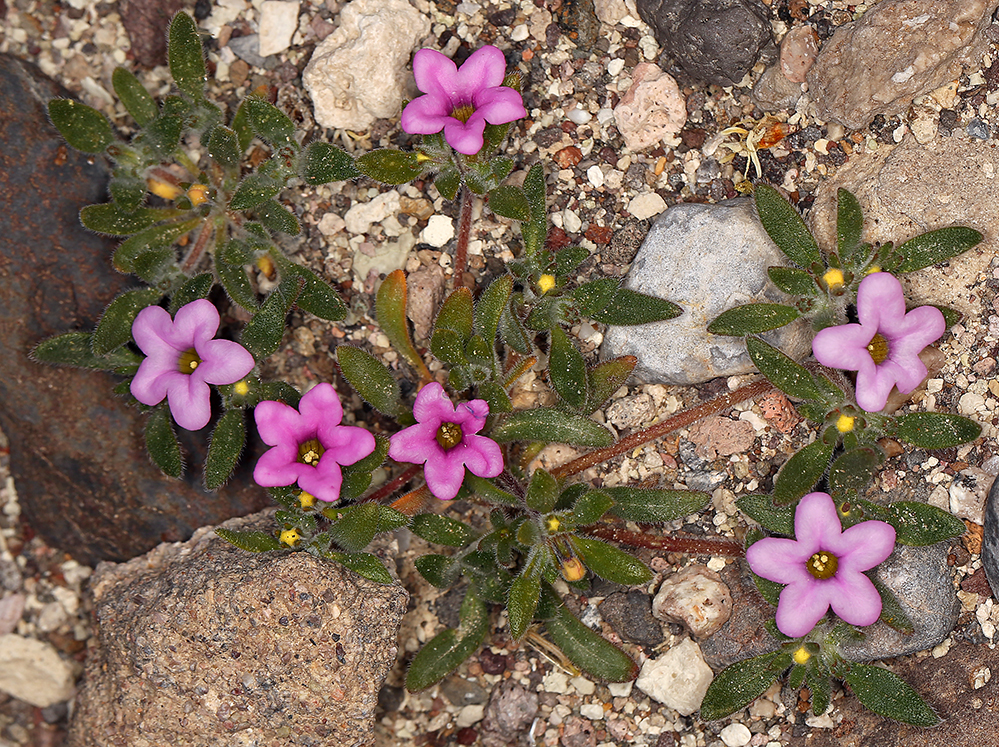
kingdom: Plantae
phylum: Tracheophyta
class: Magnoliopsida
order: Boraginales
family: Namaceae
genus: Nama
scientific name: Nama demissa
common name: Leafy nama
